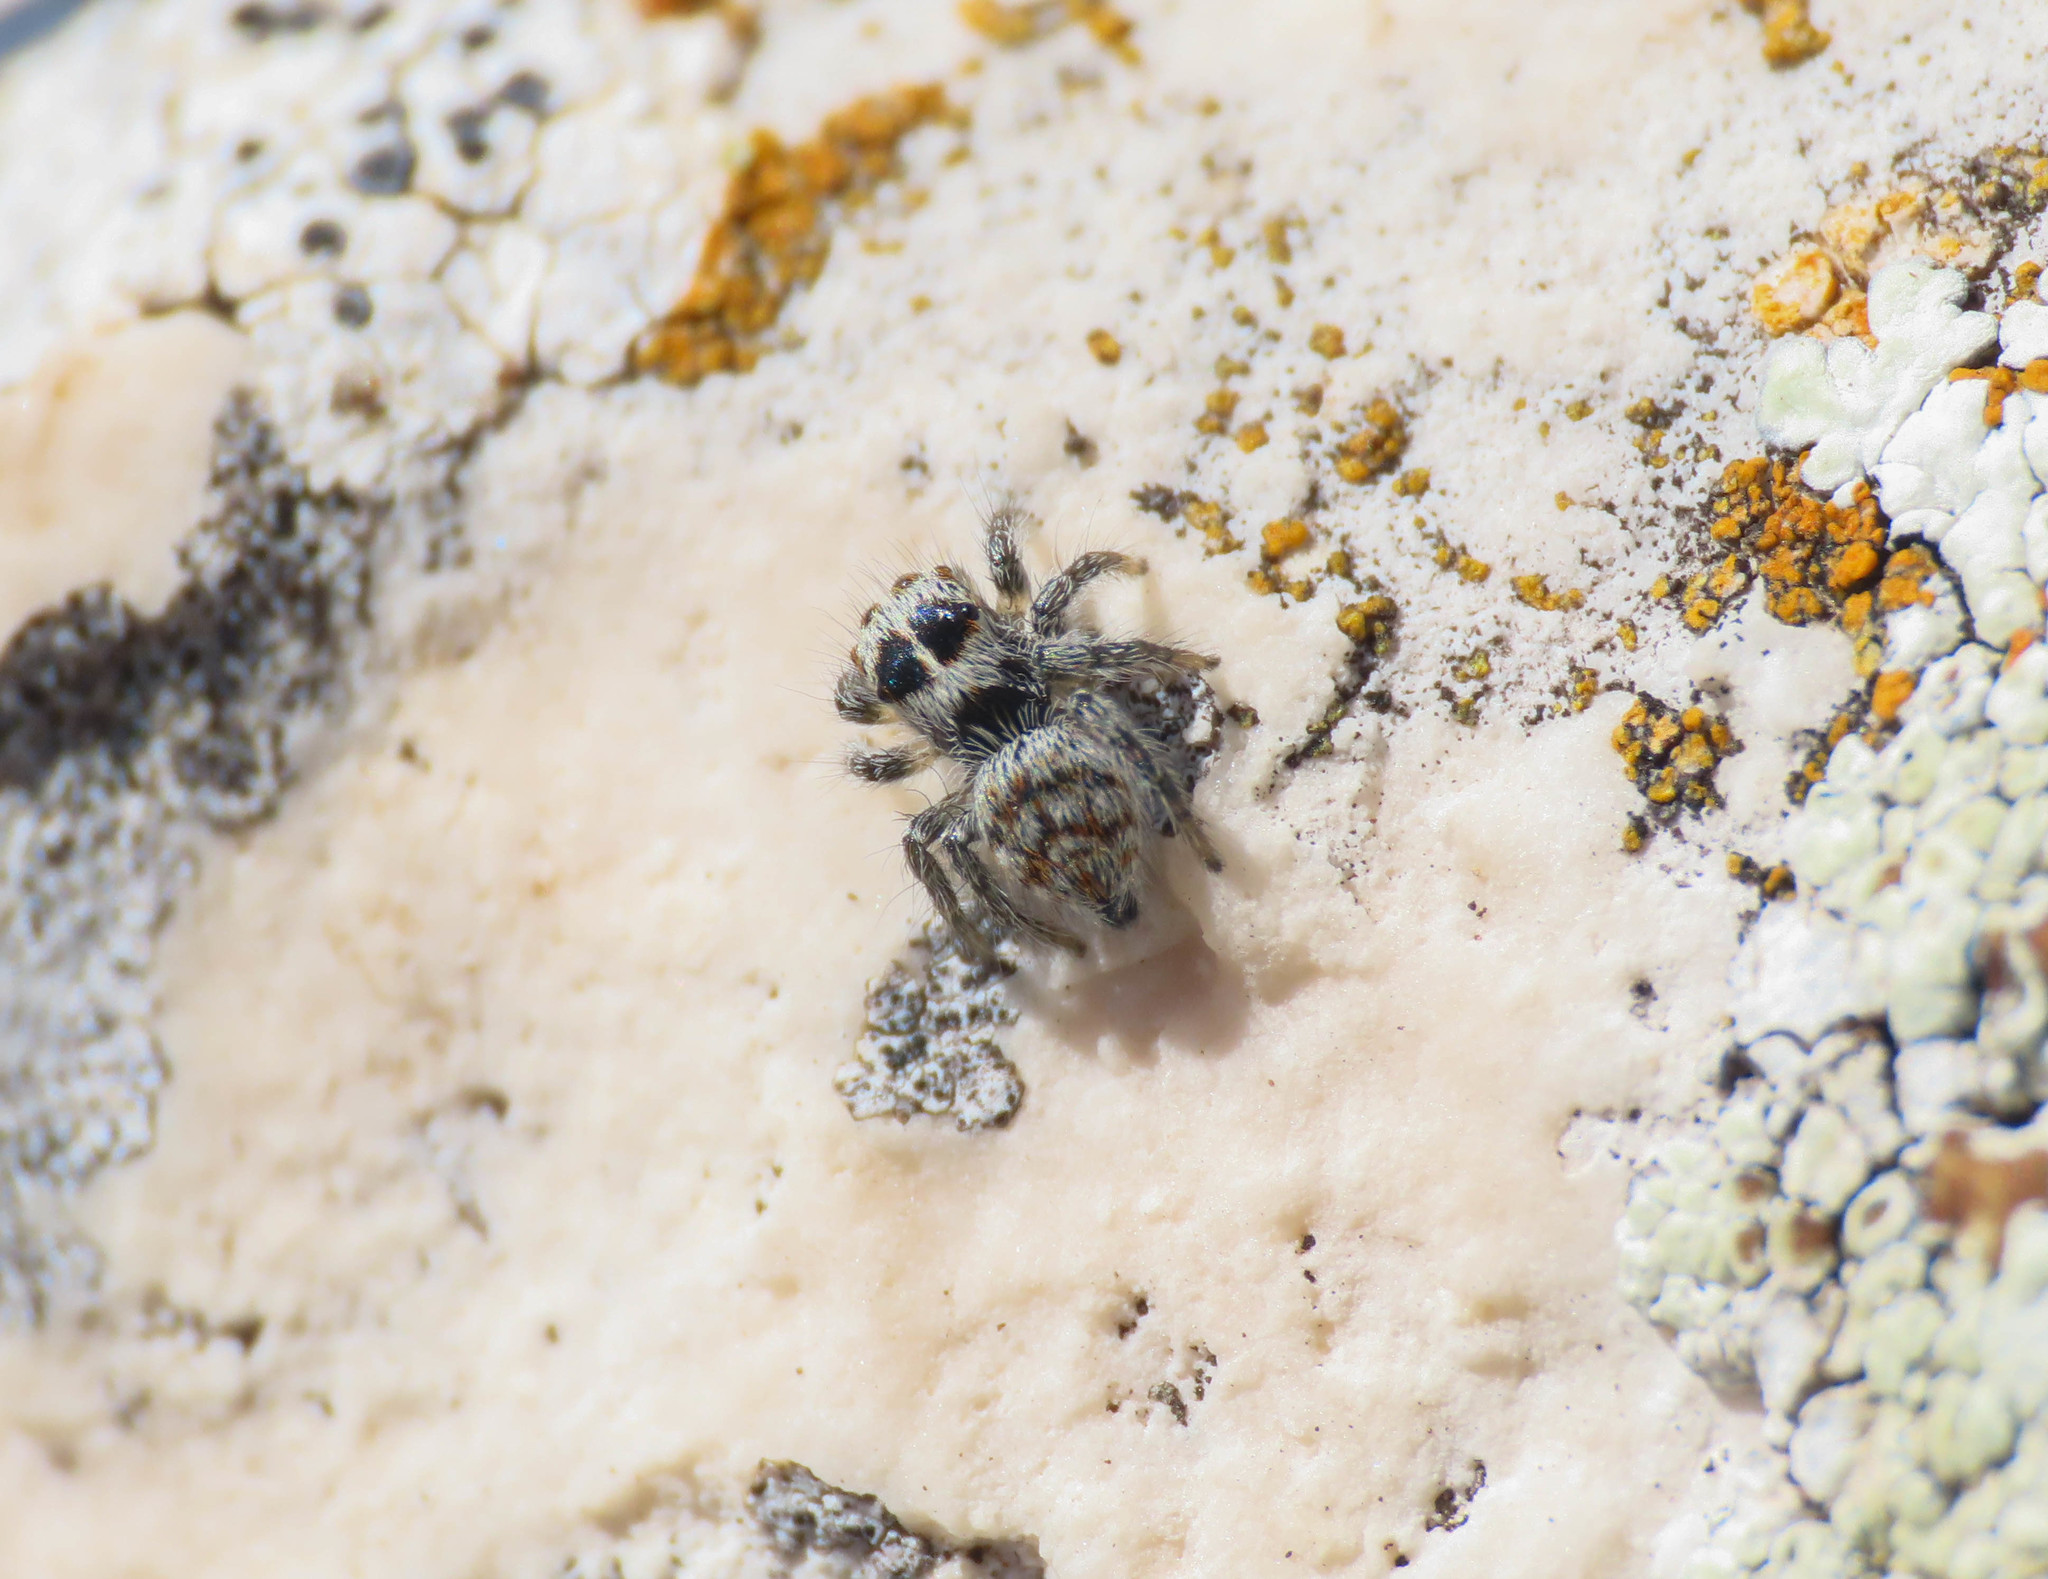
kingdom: Animalia
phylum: Arthropoda
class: Arachnida
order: Araneae
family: Salticidae
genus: Philaeus
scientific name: Philaeus chrysops
